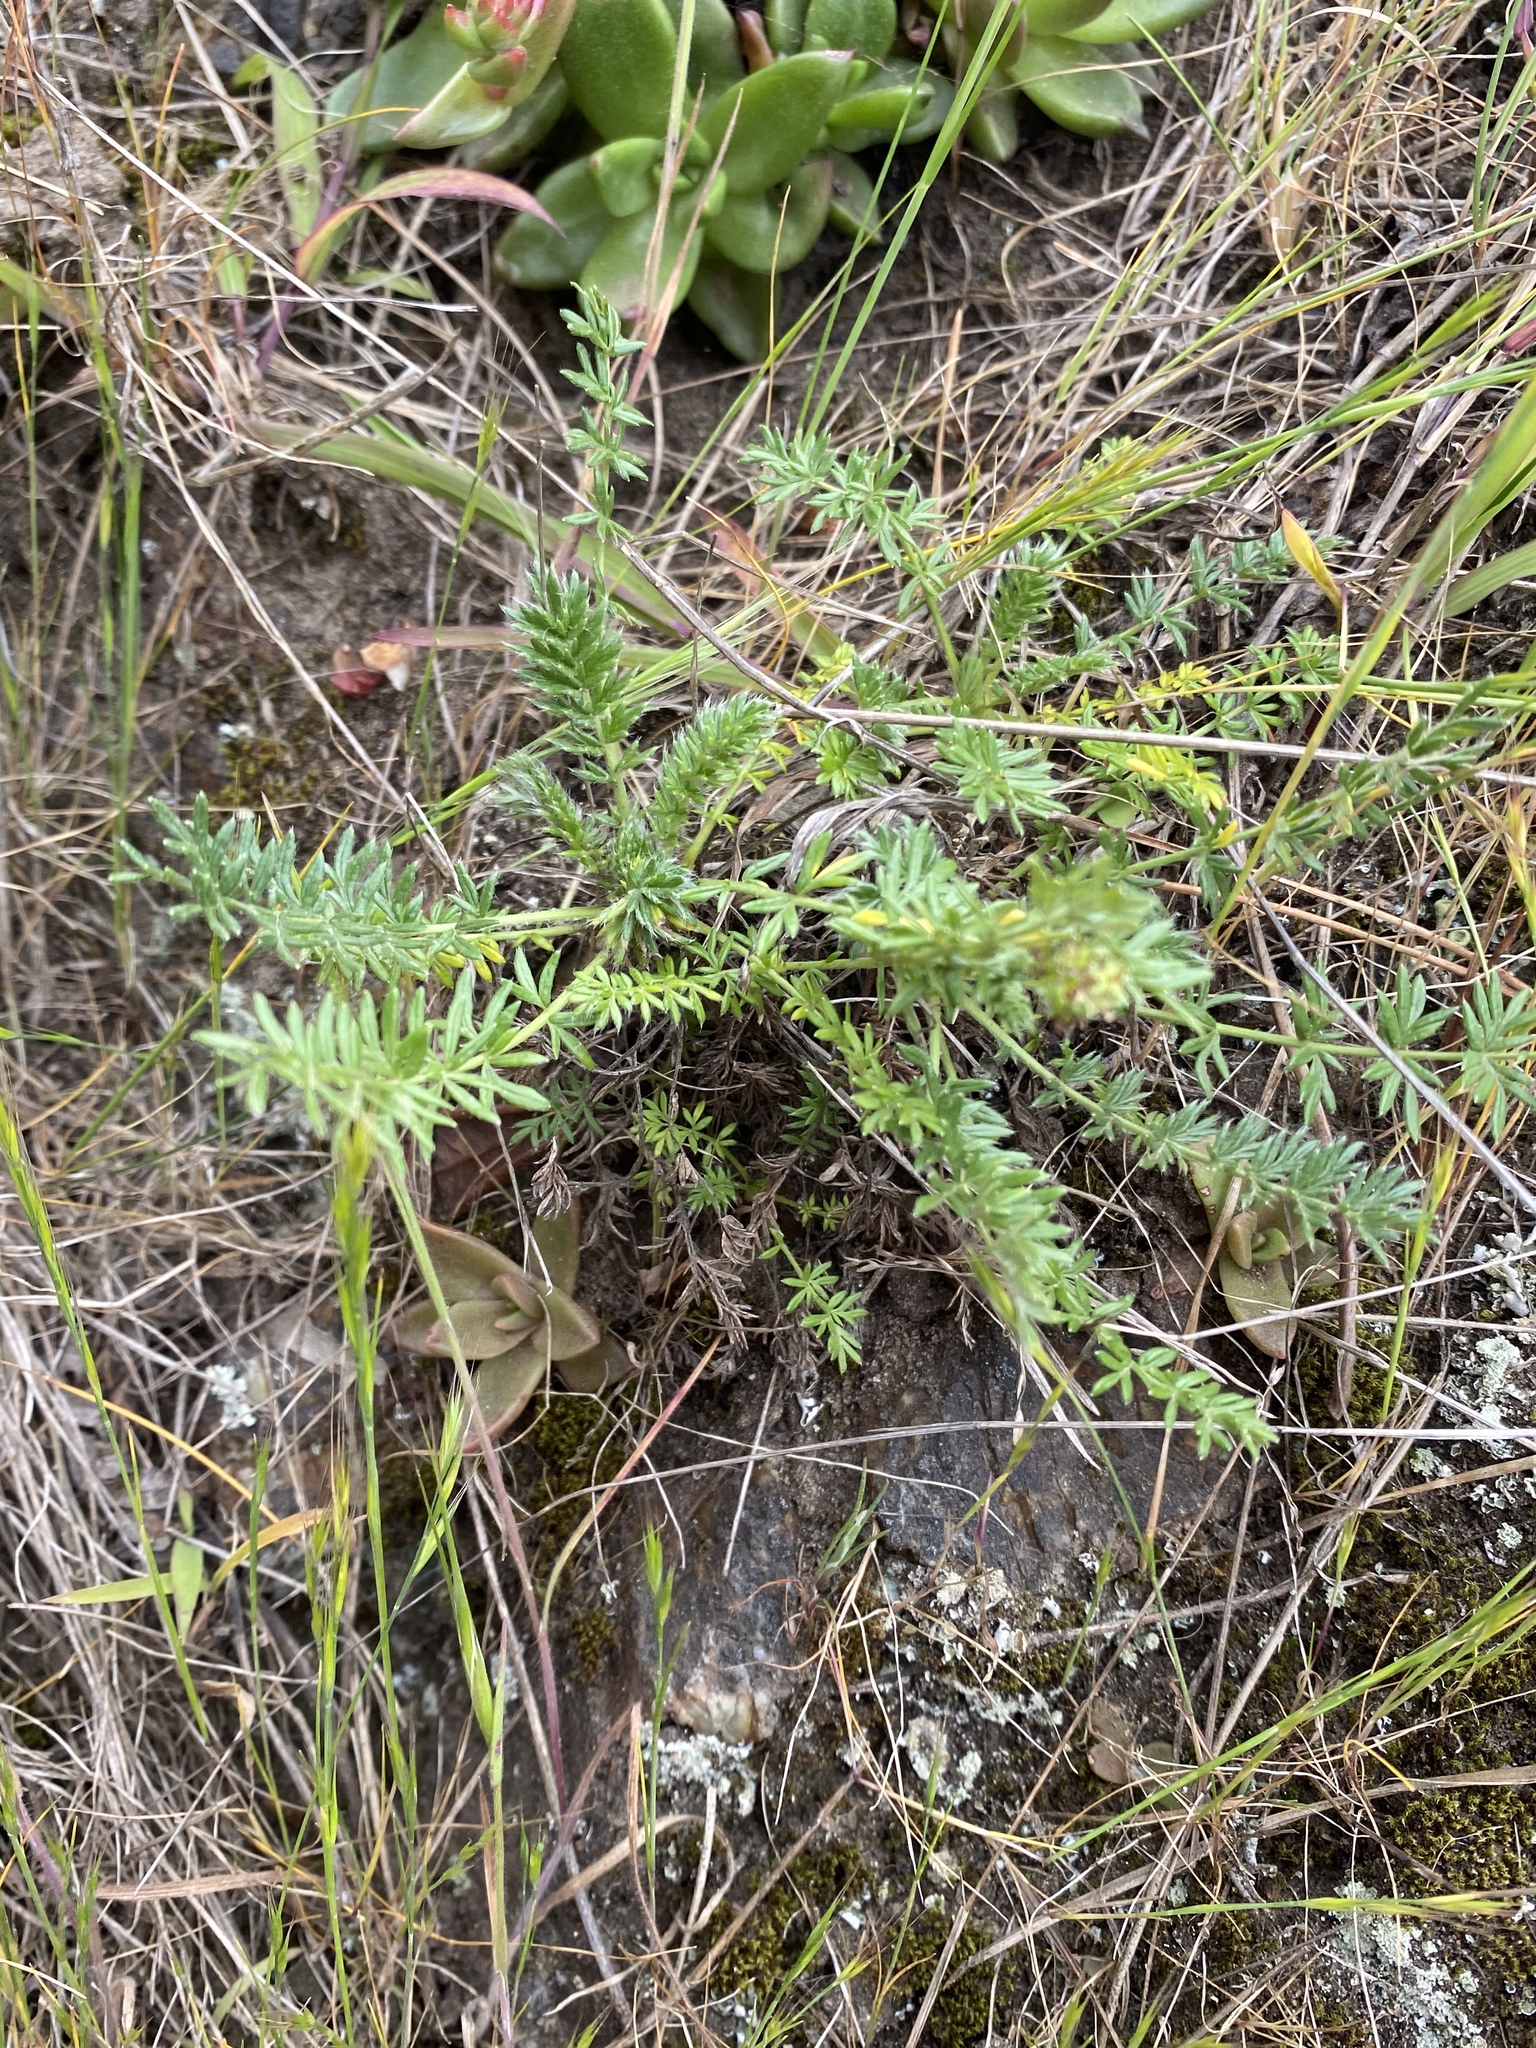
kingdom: Plantae
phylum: Tracheophyta
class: Magnoliopsida
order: Rosales
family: Rosaceae
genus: Acaena
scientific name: Acaena pinnatifida
